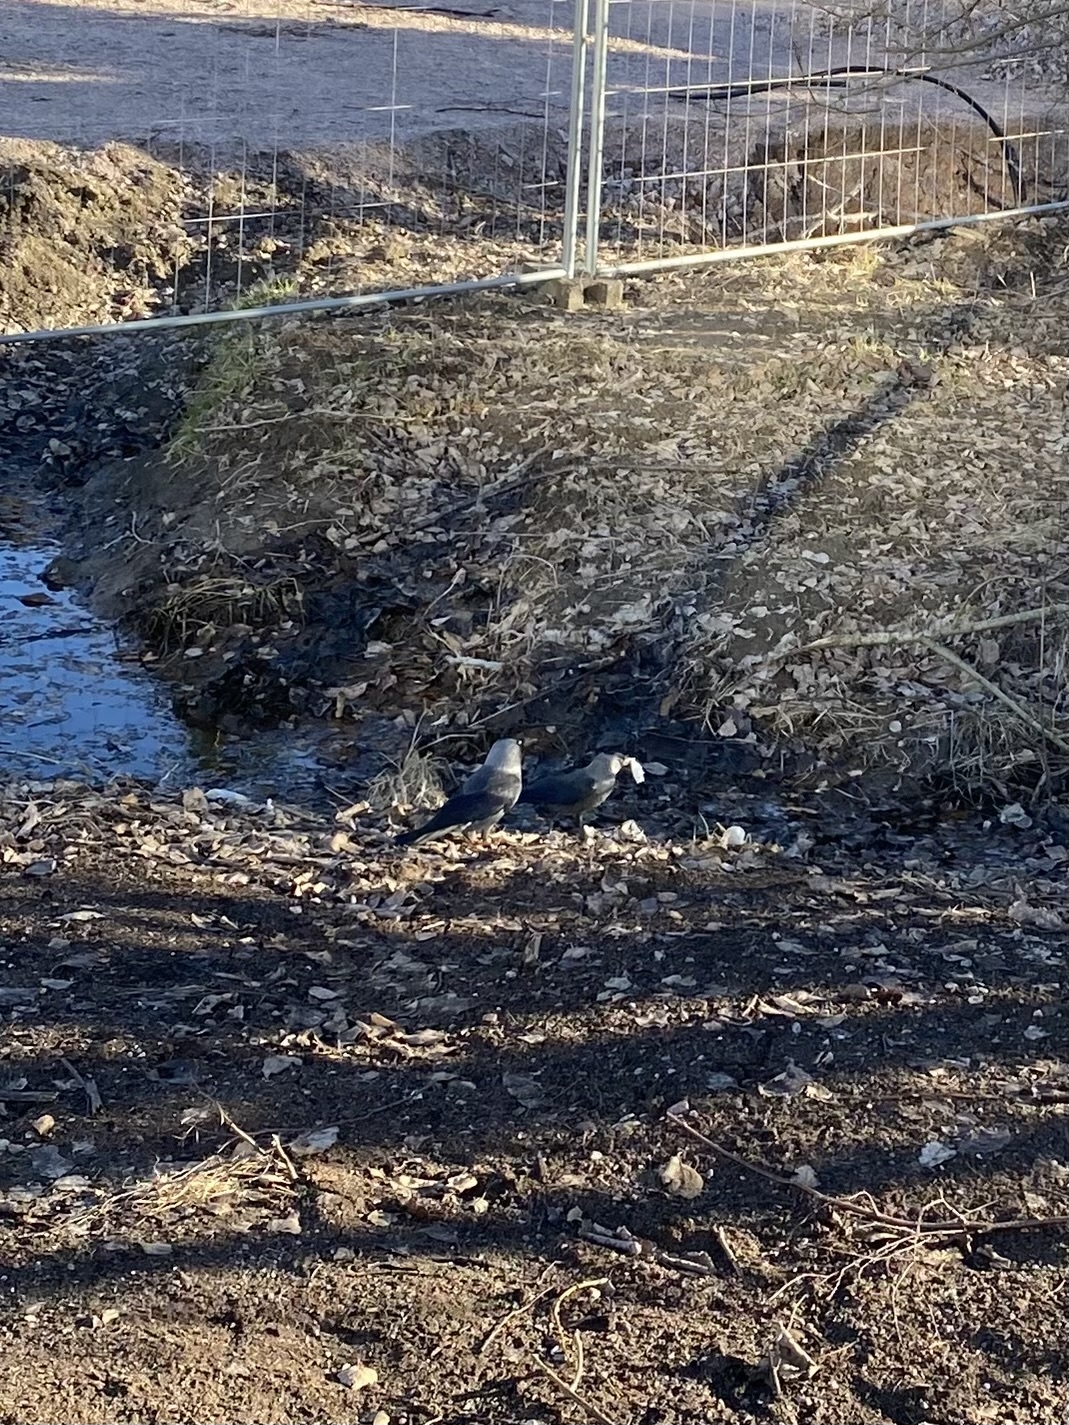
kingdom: Animalia
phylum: Chordata
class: Aves
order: Passeriformes
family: Corvidae
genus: Coloeus
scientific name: Coloeus monedula
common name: Western jackdaw
